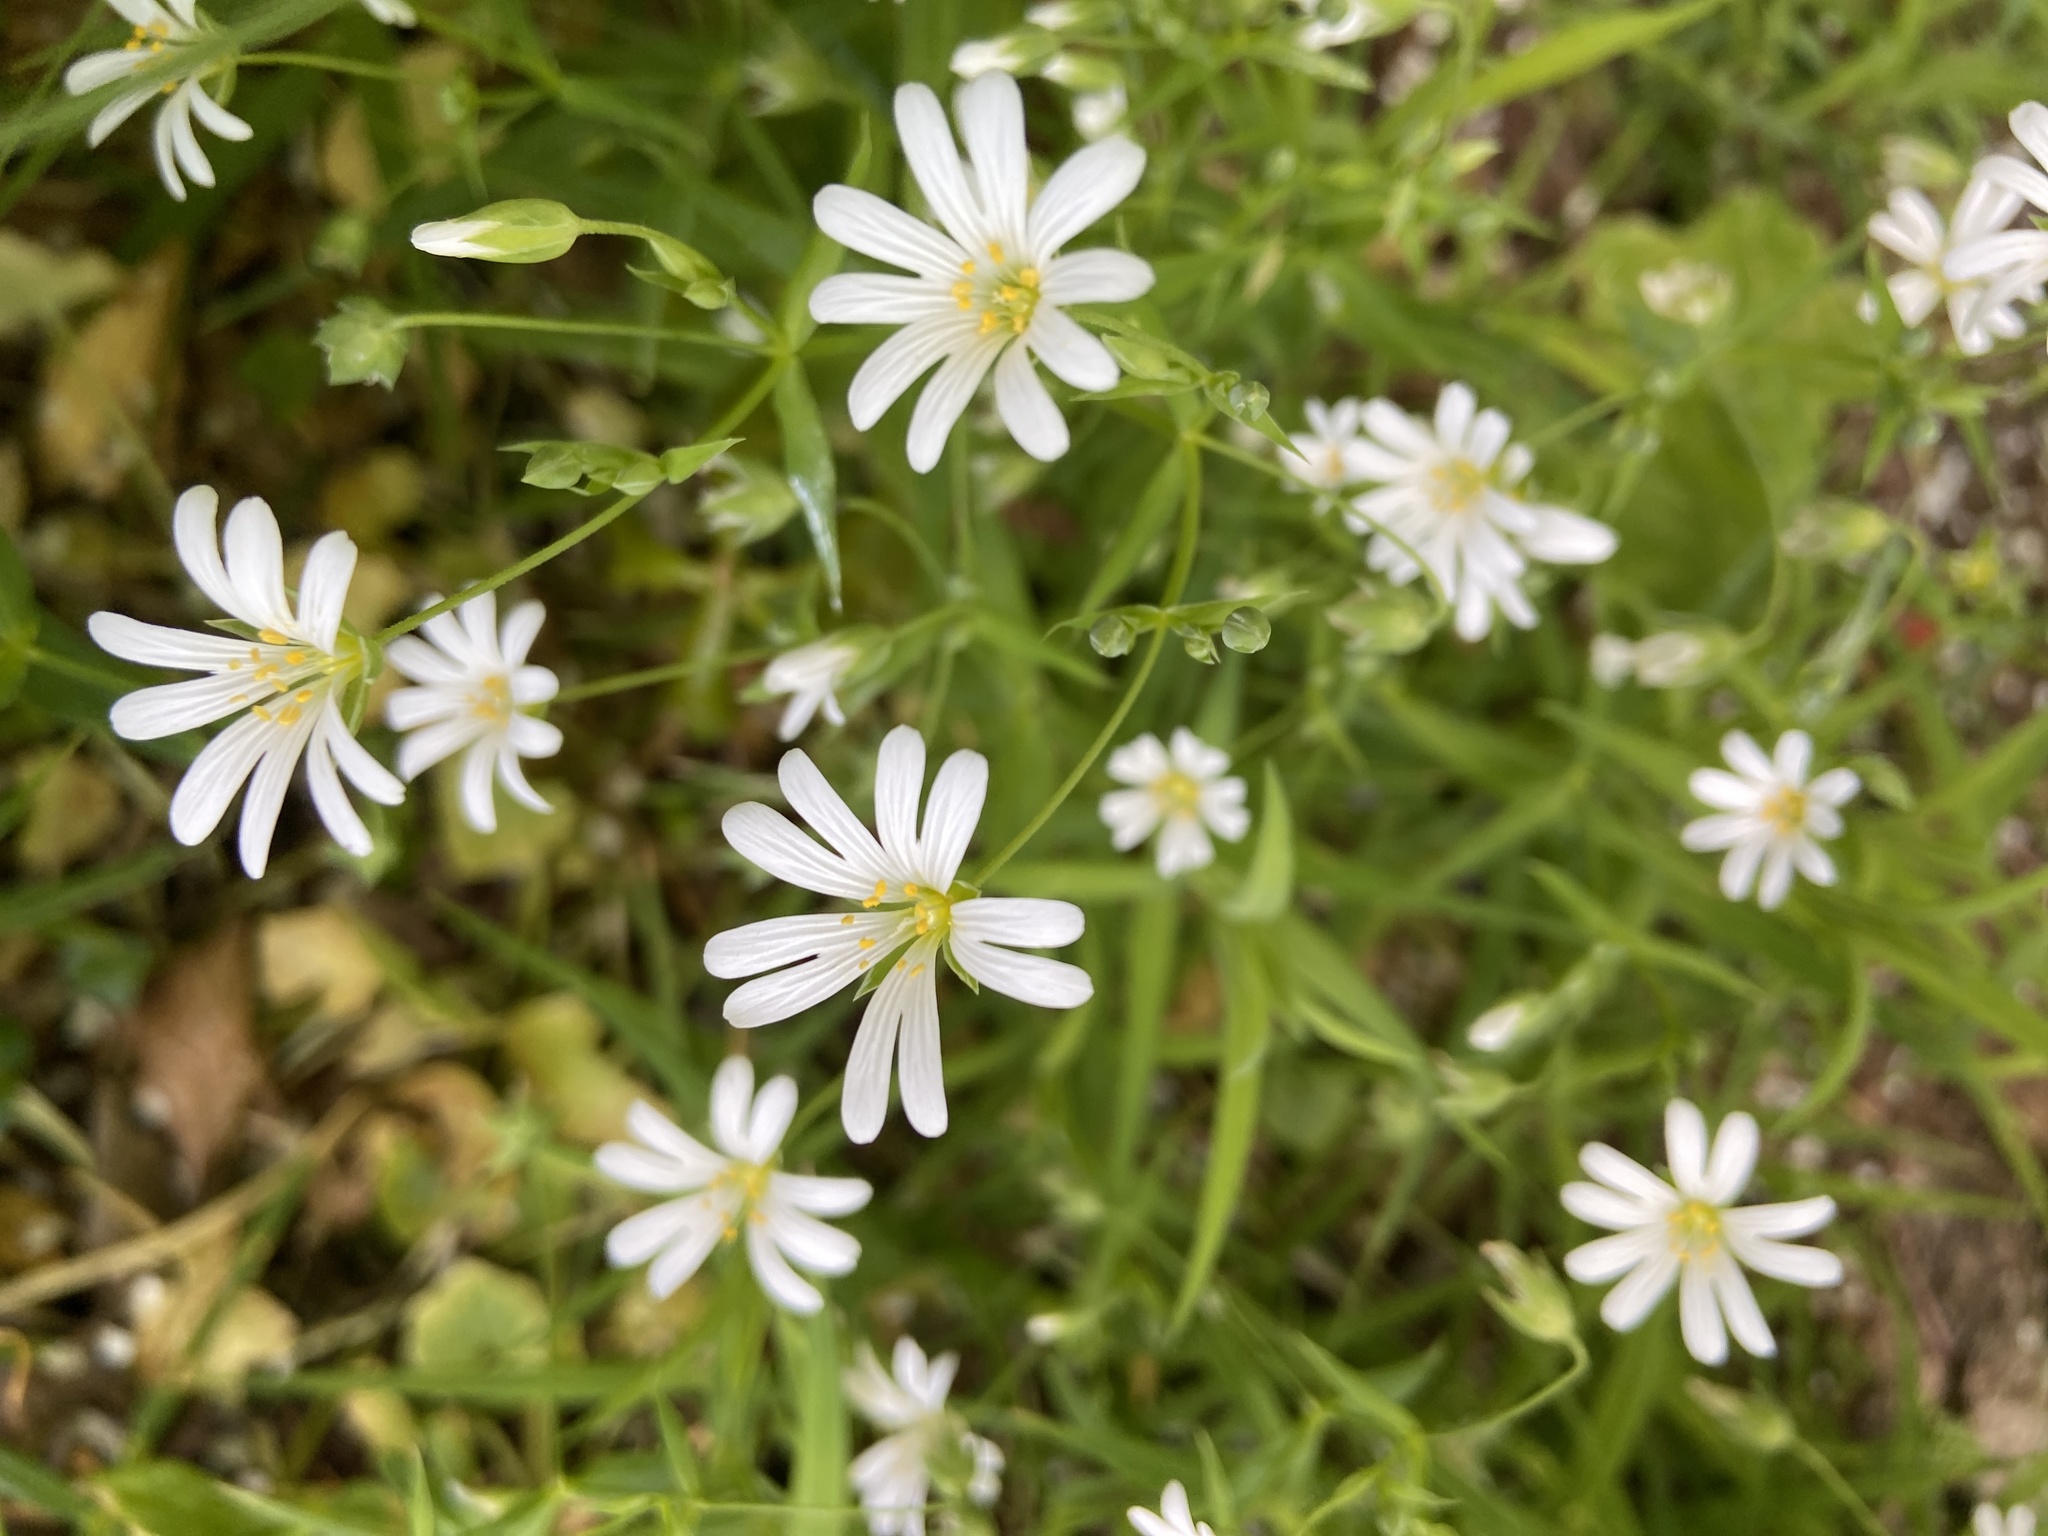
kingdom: Plantae
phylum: Tracheophyta
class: Magnoliopsida
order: Caryophyllales
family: Caryophyllaceae
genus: Rabelera
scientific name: Rabelera holostea
